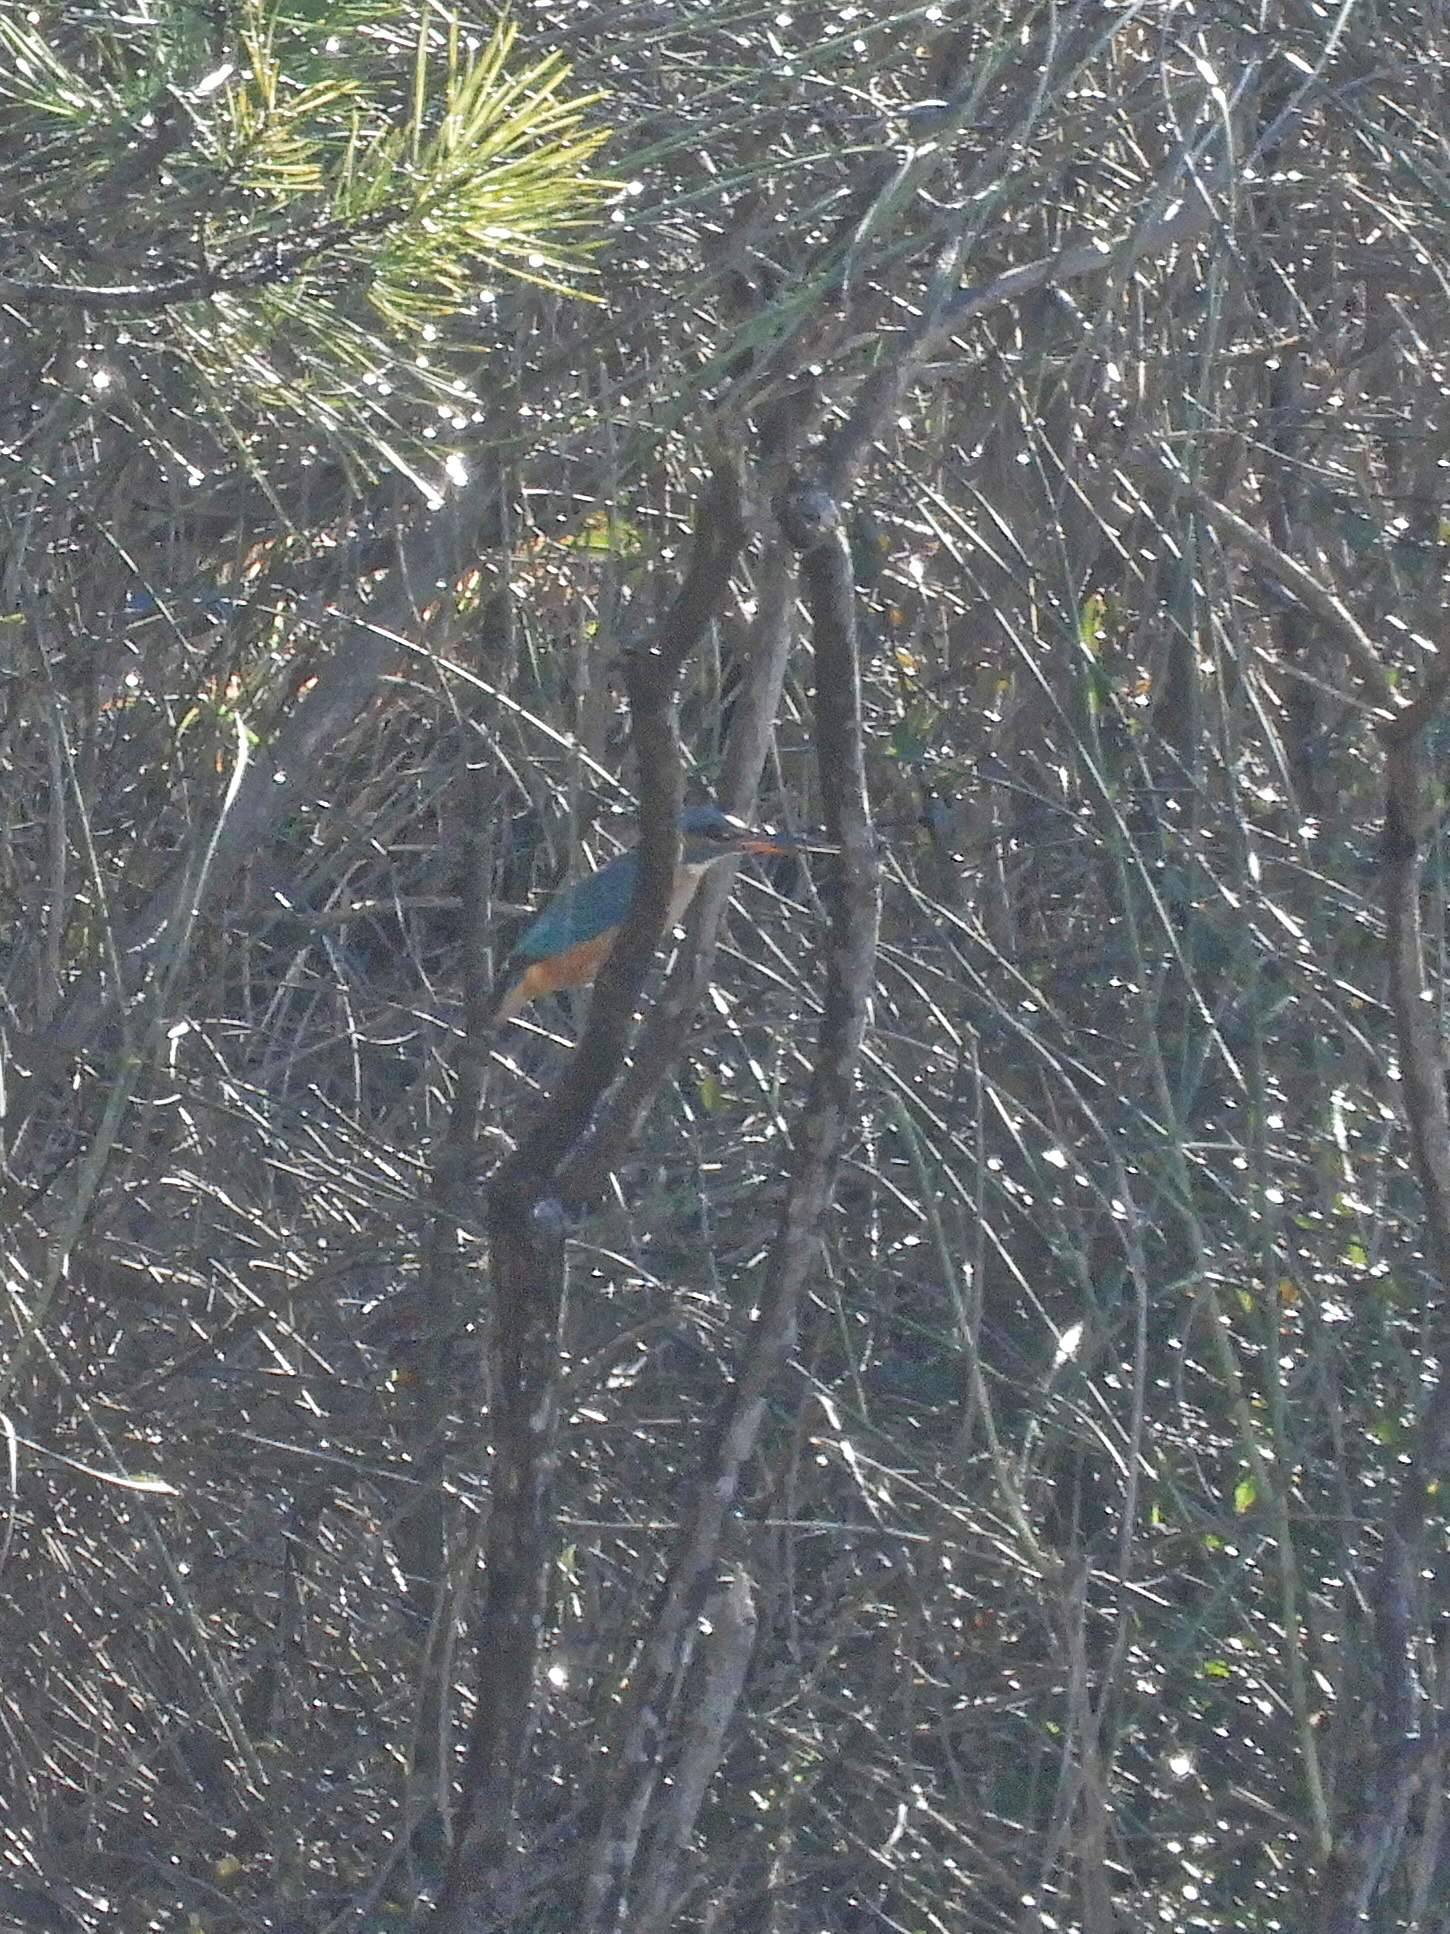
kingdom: Animalia
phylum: Chordata
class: Aves
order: Coraciiformes
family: Alcedinidae
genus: Alcedo
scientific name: Alcedo atthis
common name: Common kingfisher
